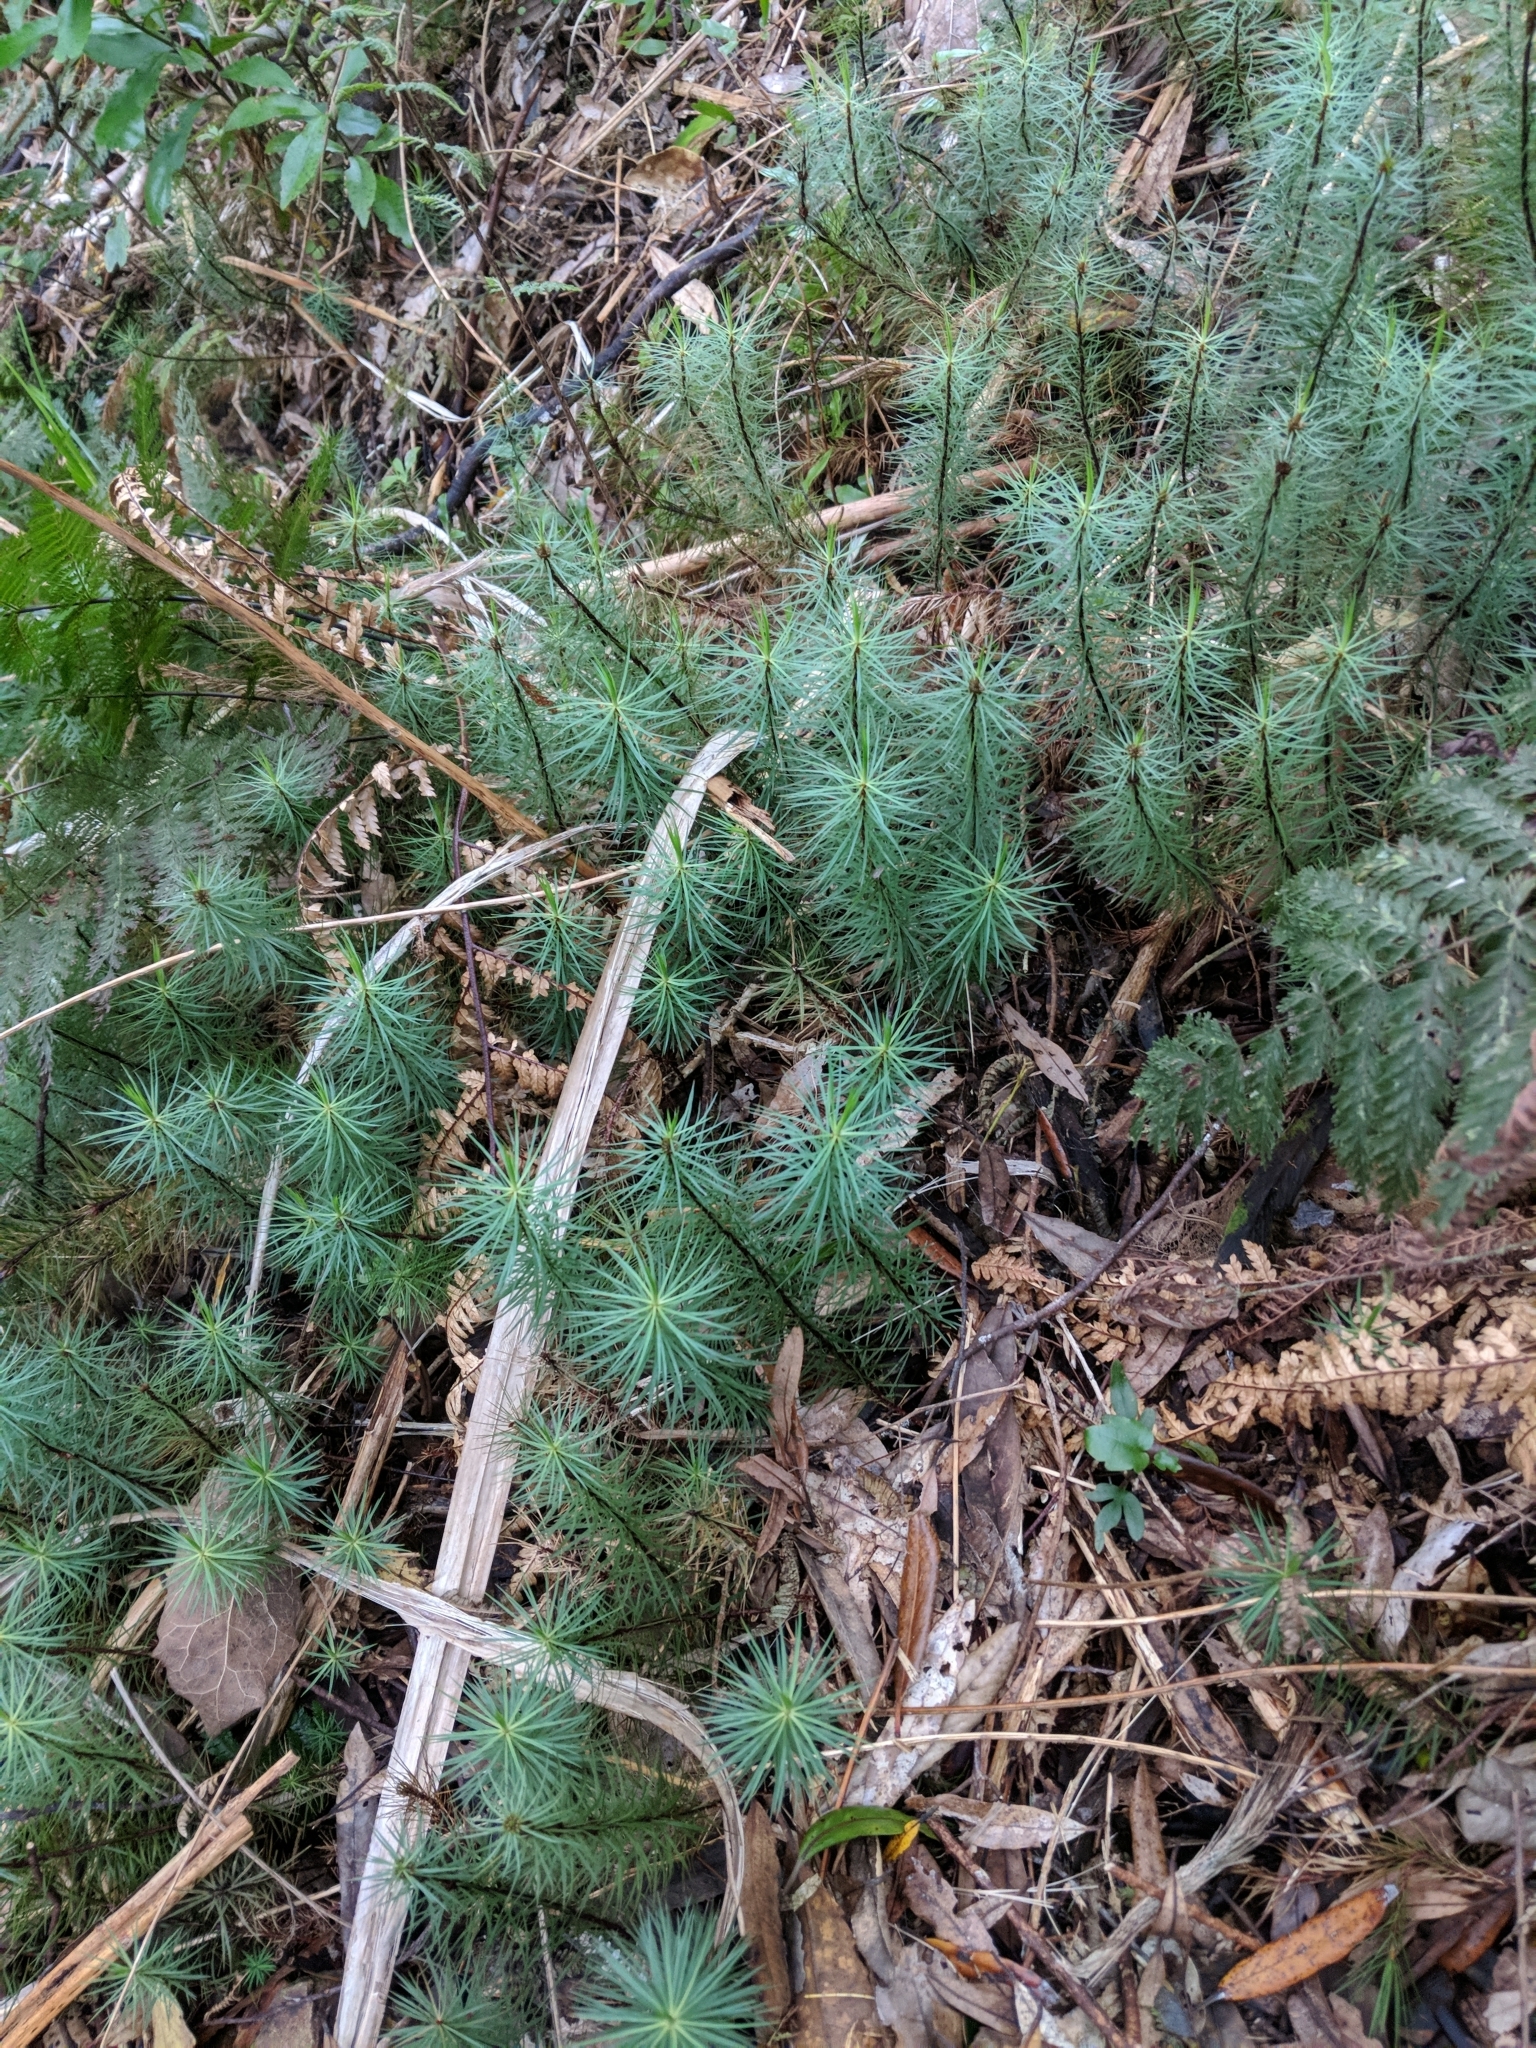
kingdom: Plantae
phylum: Bryophyta
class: Polytrichopsida
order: Polytrichales
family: Polytrichaceae
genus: Dawsonia
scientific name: Dawsonia superba
